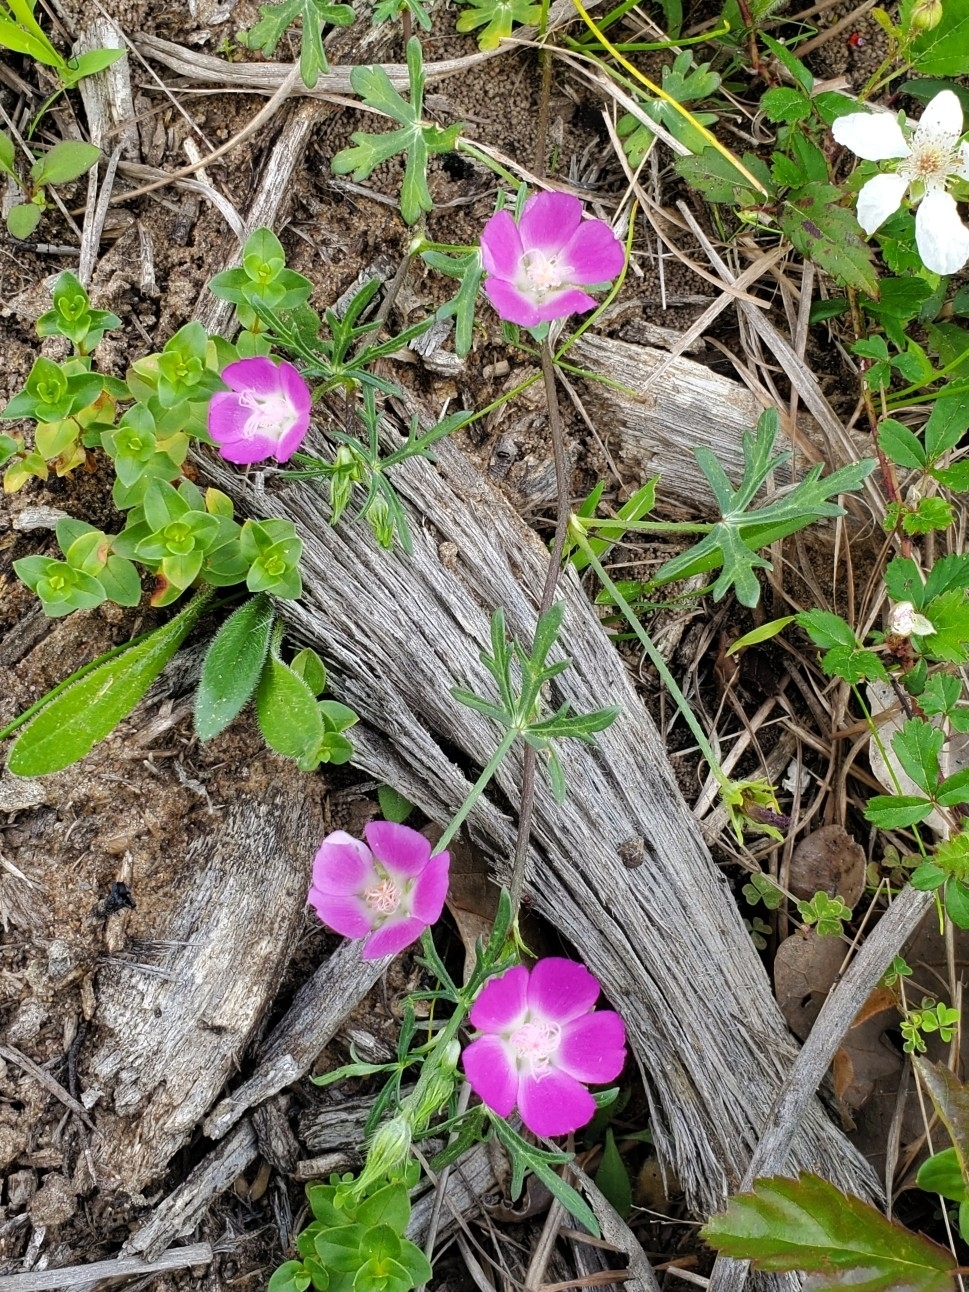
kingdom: Plantae
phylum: Tracheophyta
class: Magnoliopsida
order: Malvales
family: Malvaceae
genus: Callirhoe
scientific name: Callirhoe involucrata
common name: Purple poppy-mallow
